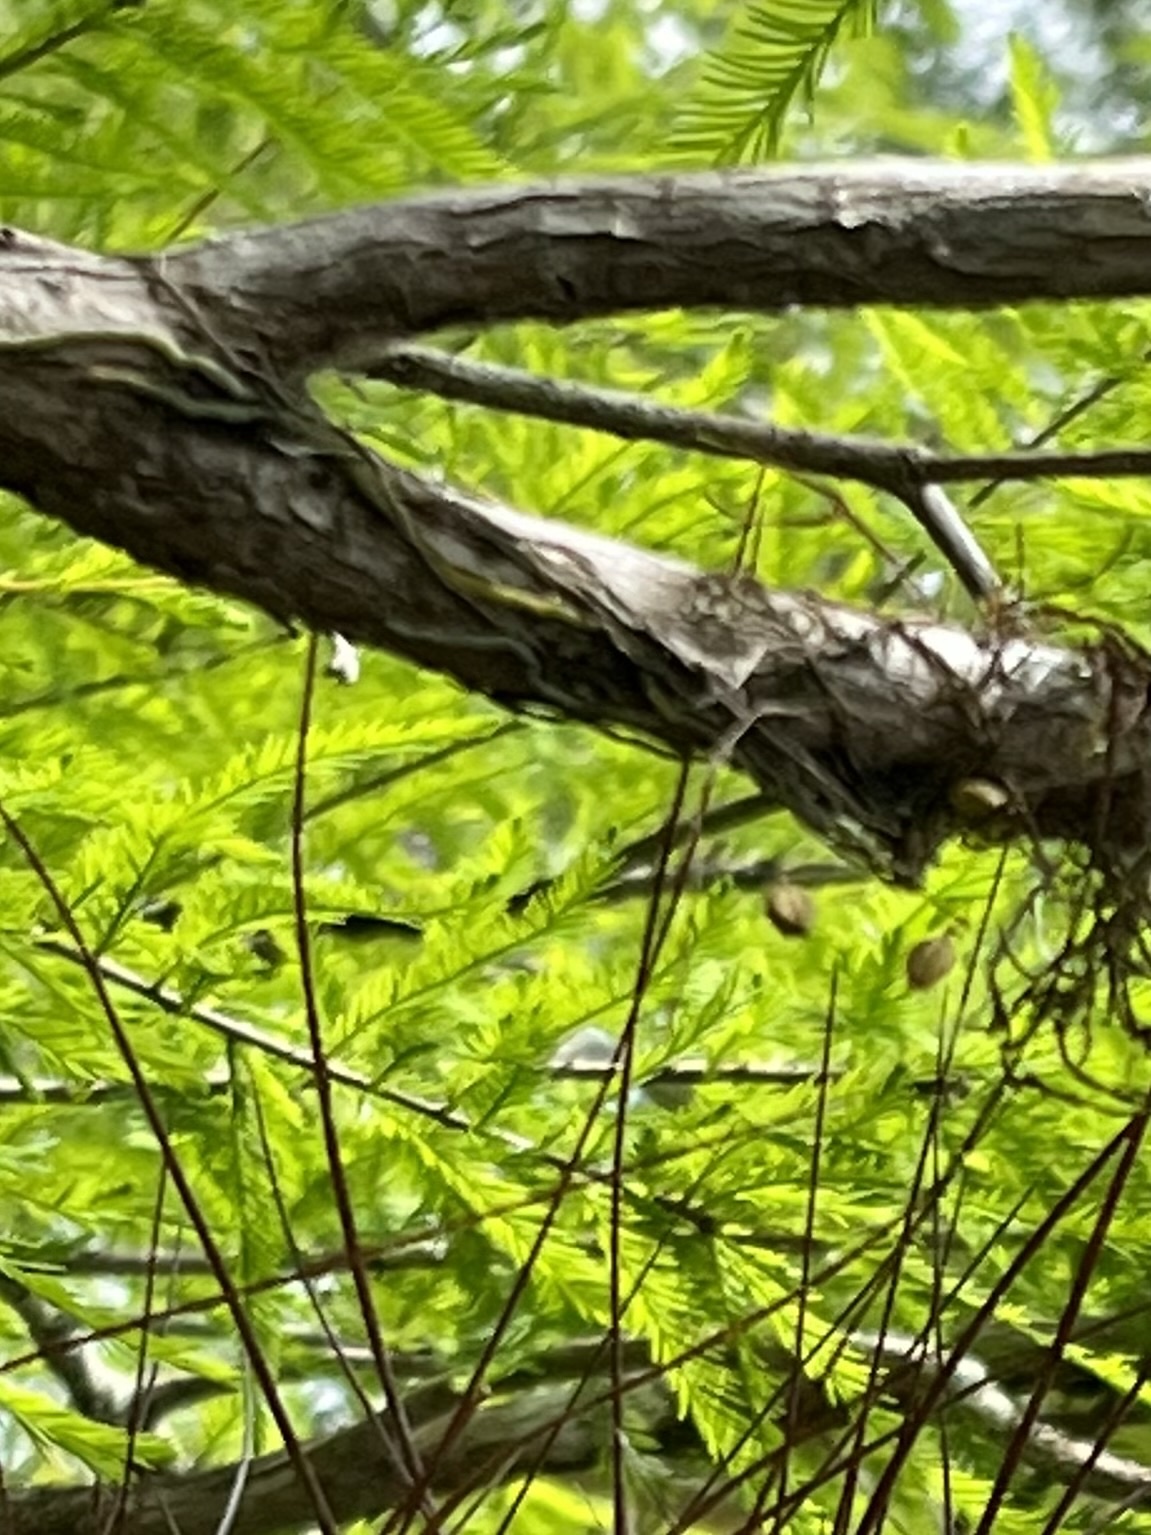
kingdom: Plantae
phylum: Tracheophyta
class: Liliopsida
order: Asparagales
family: Orchidaceae
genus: Dendrophylax
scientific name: Dendrophylax porrectus
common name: Needleroot airplant orchid
